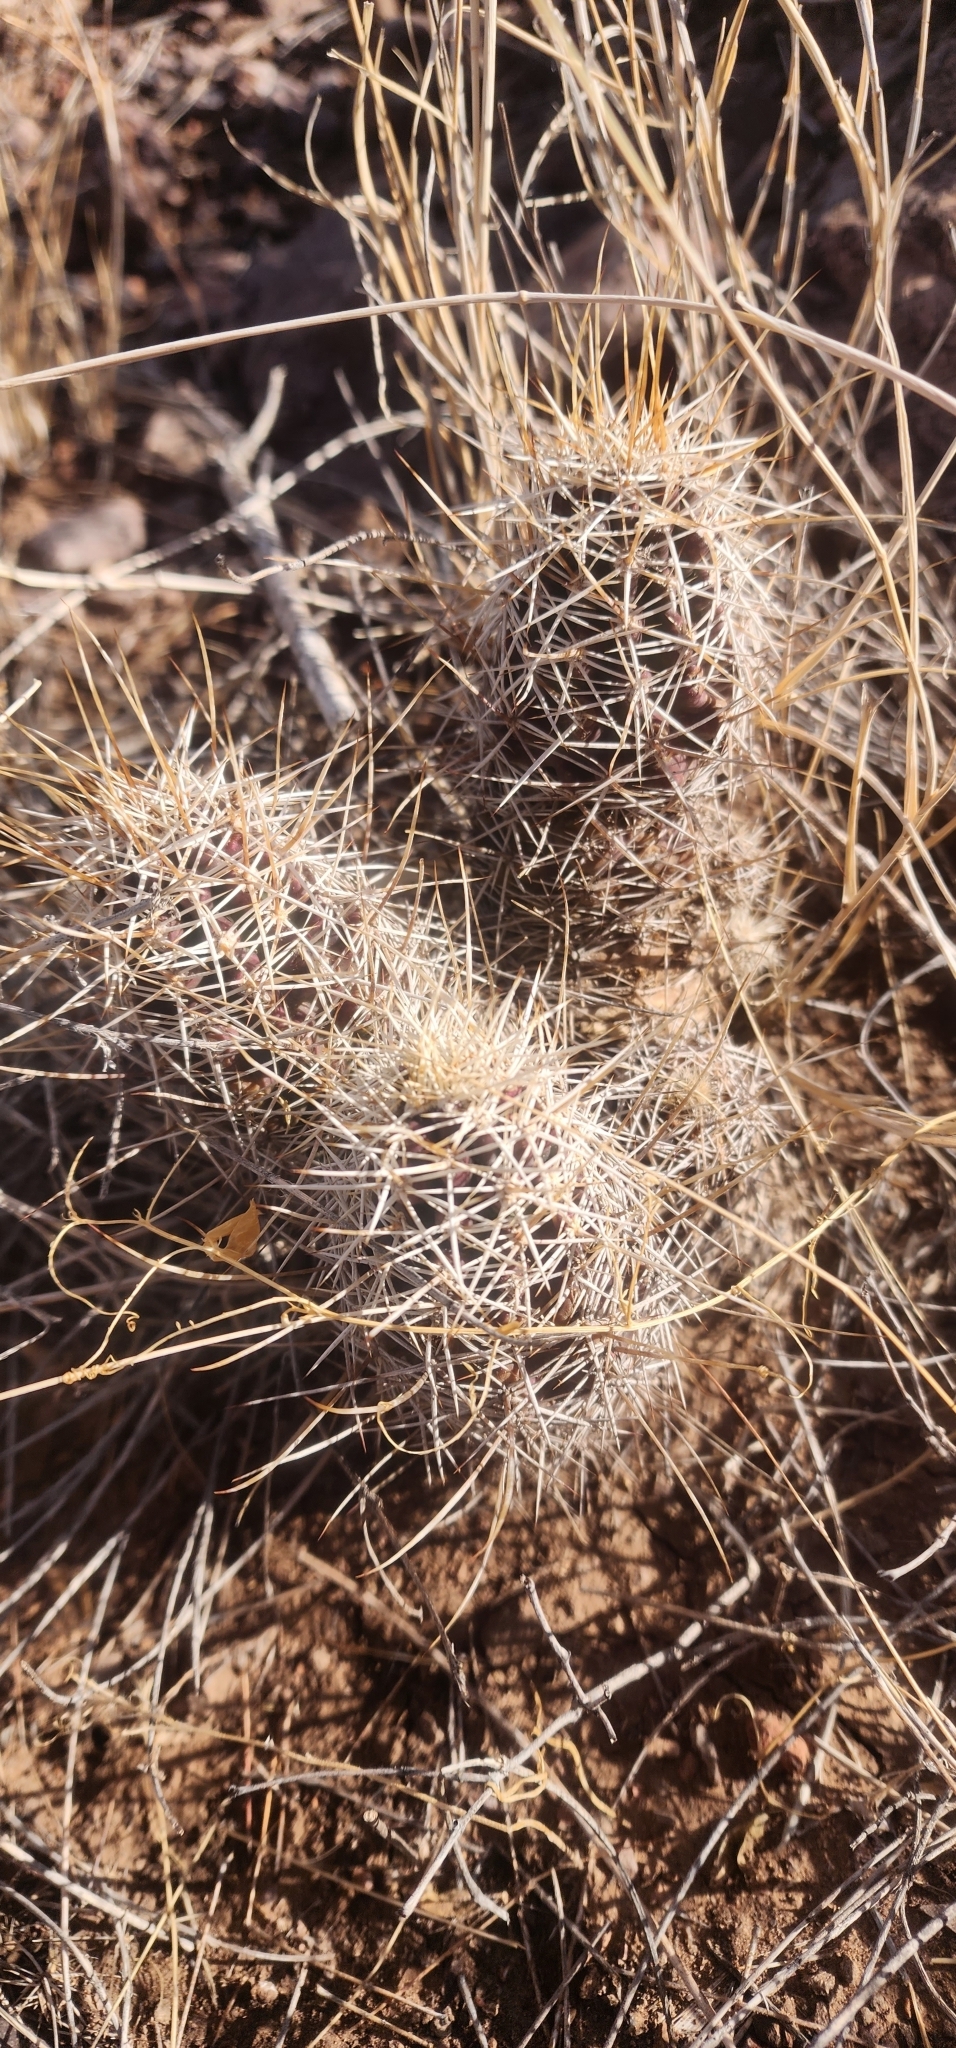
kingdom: Plantae
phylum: Tracheophyta
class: Magnoliopsida
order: Caryophyllales
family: Cactaceae
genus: Echinocereus
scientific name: Echinocereus fendleri
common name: Fendler's hedgehog cactus
